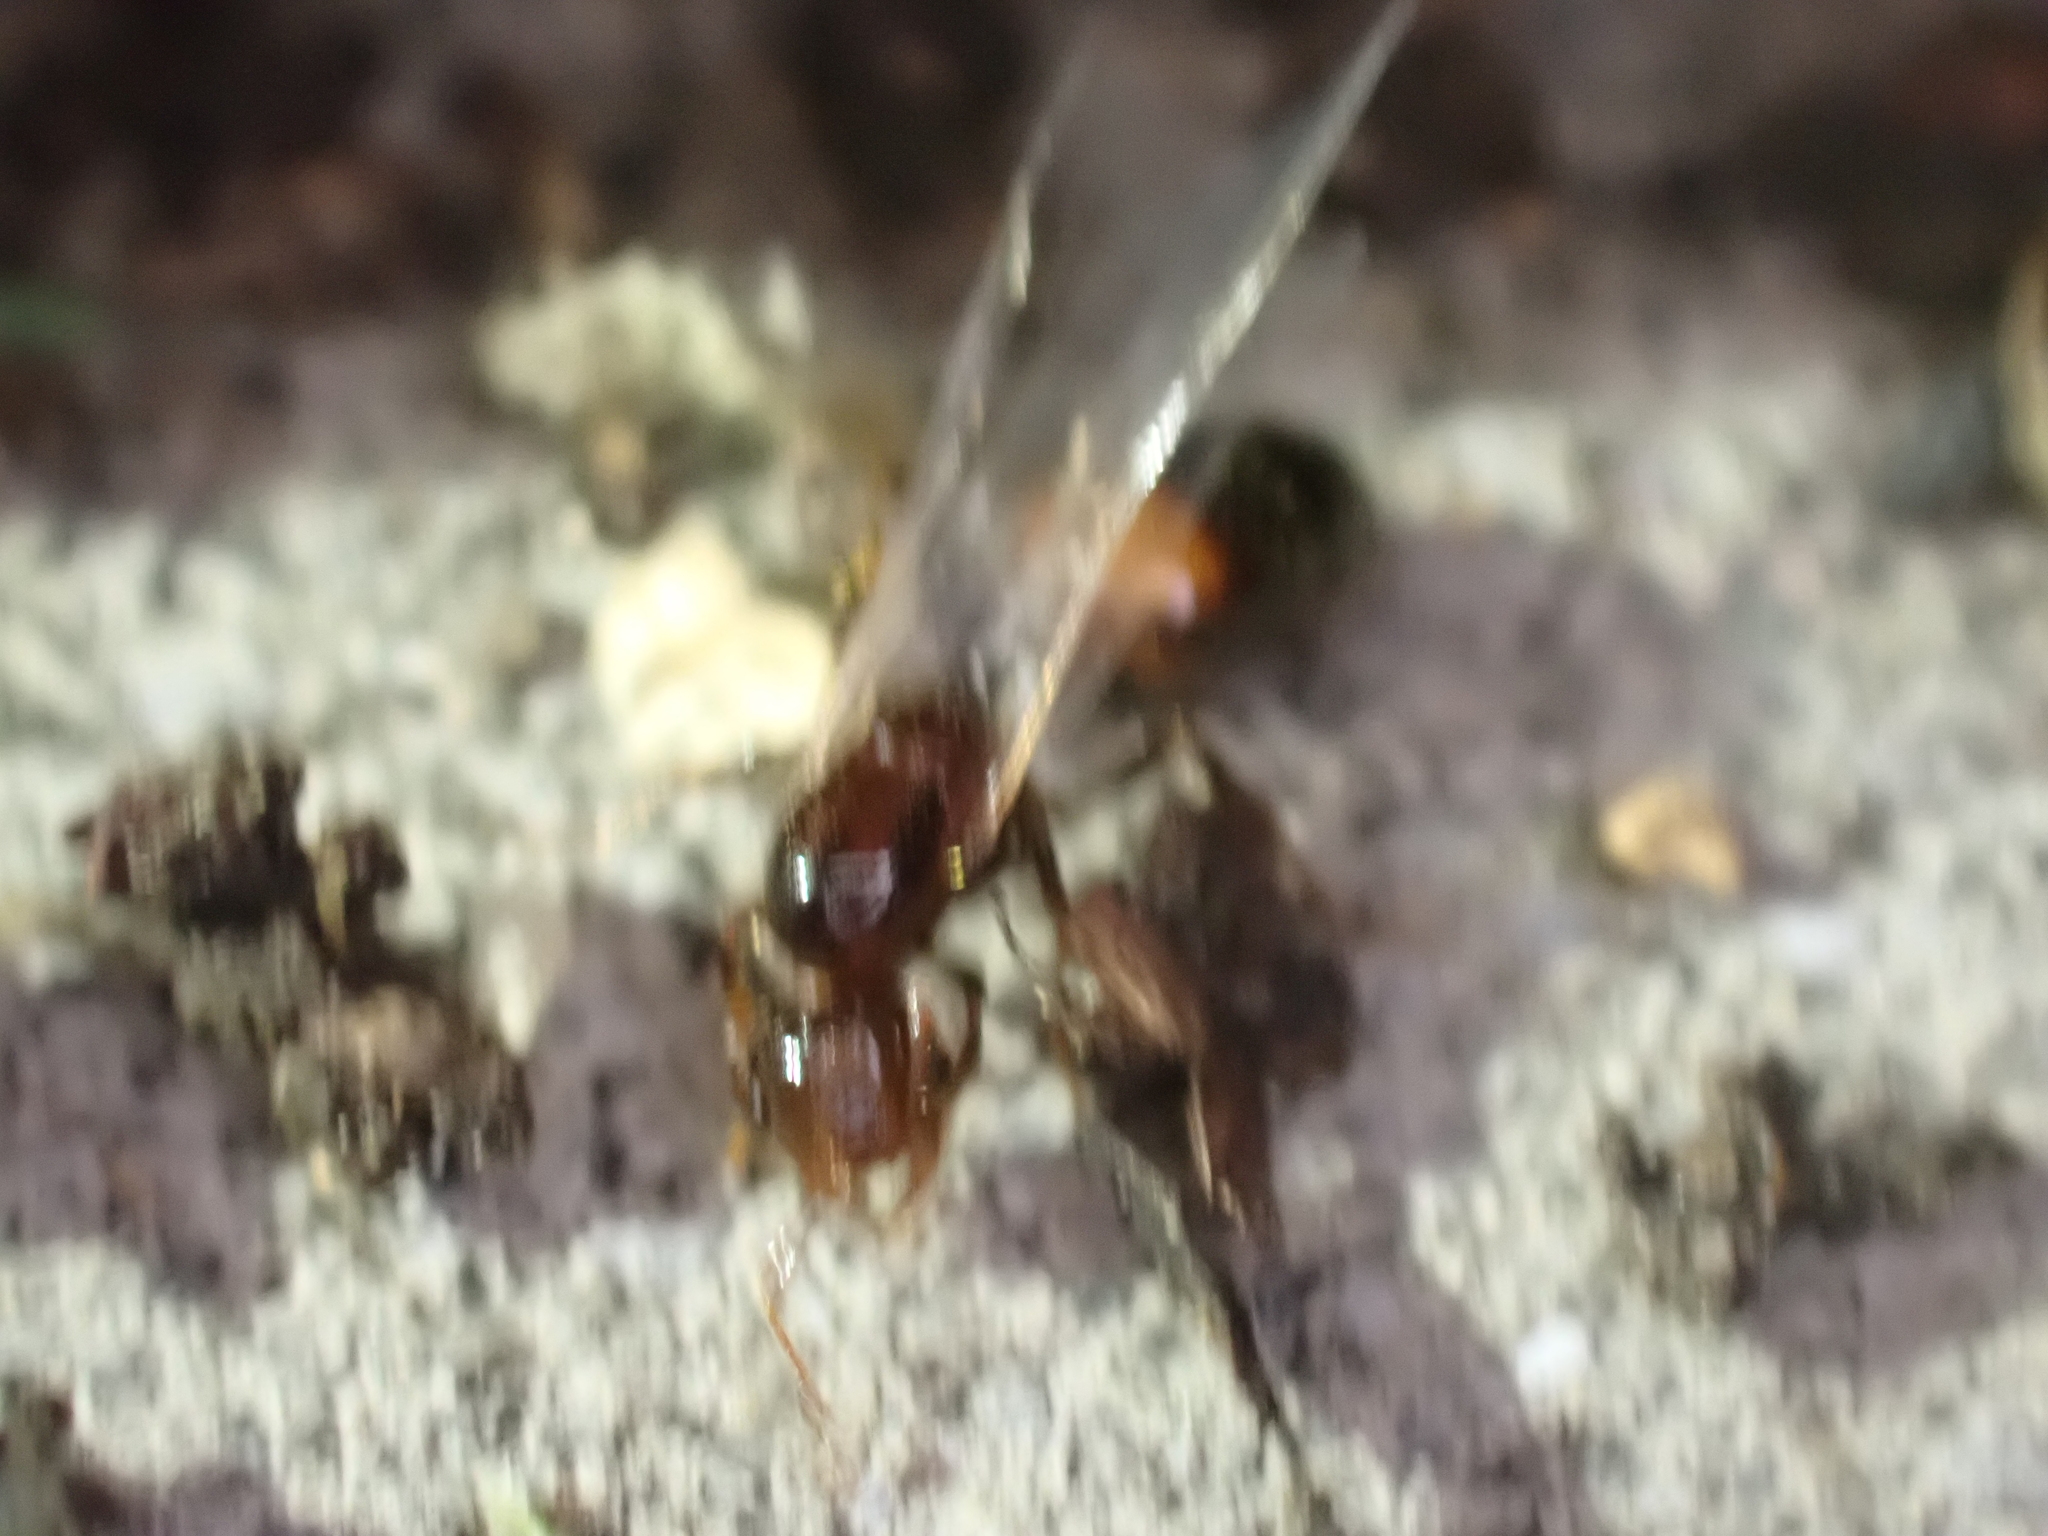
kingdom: Animalia
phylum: Arthropoda
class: Insecta
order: Hymenoptera
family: Formicidae
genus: Solenopsis
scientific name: Solenopsis
